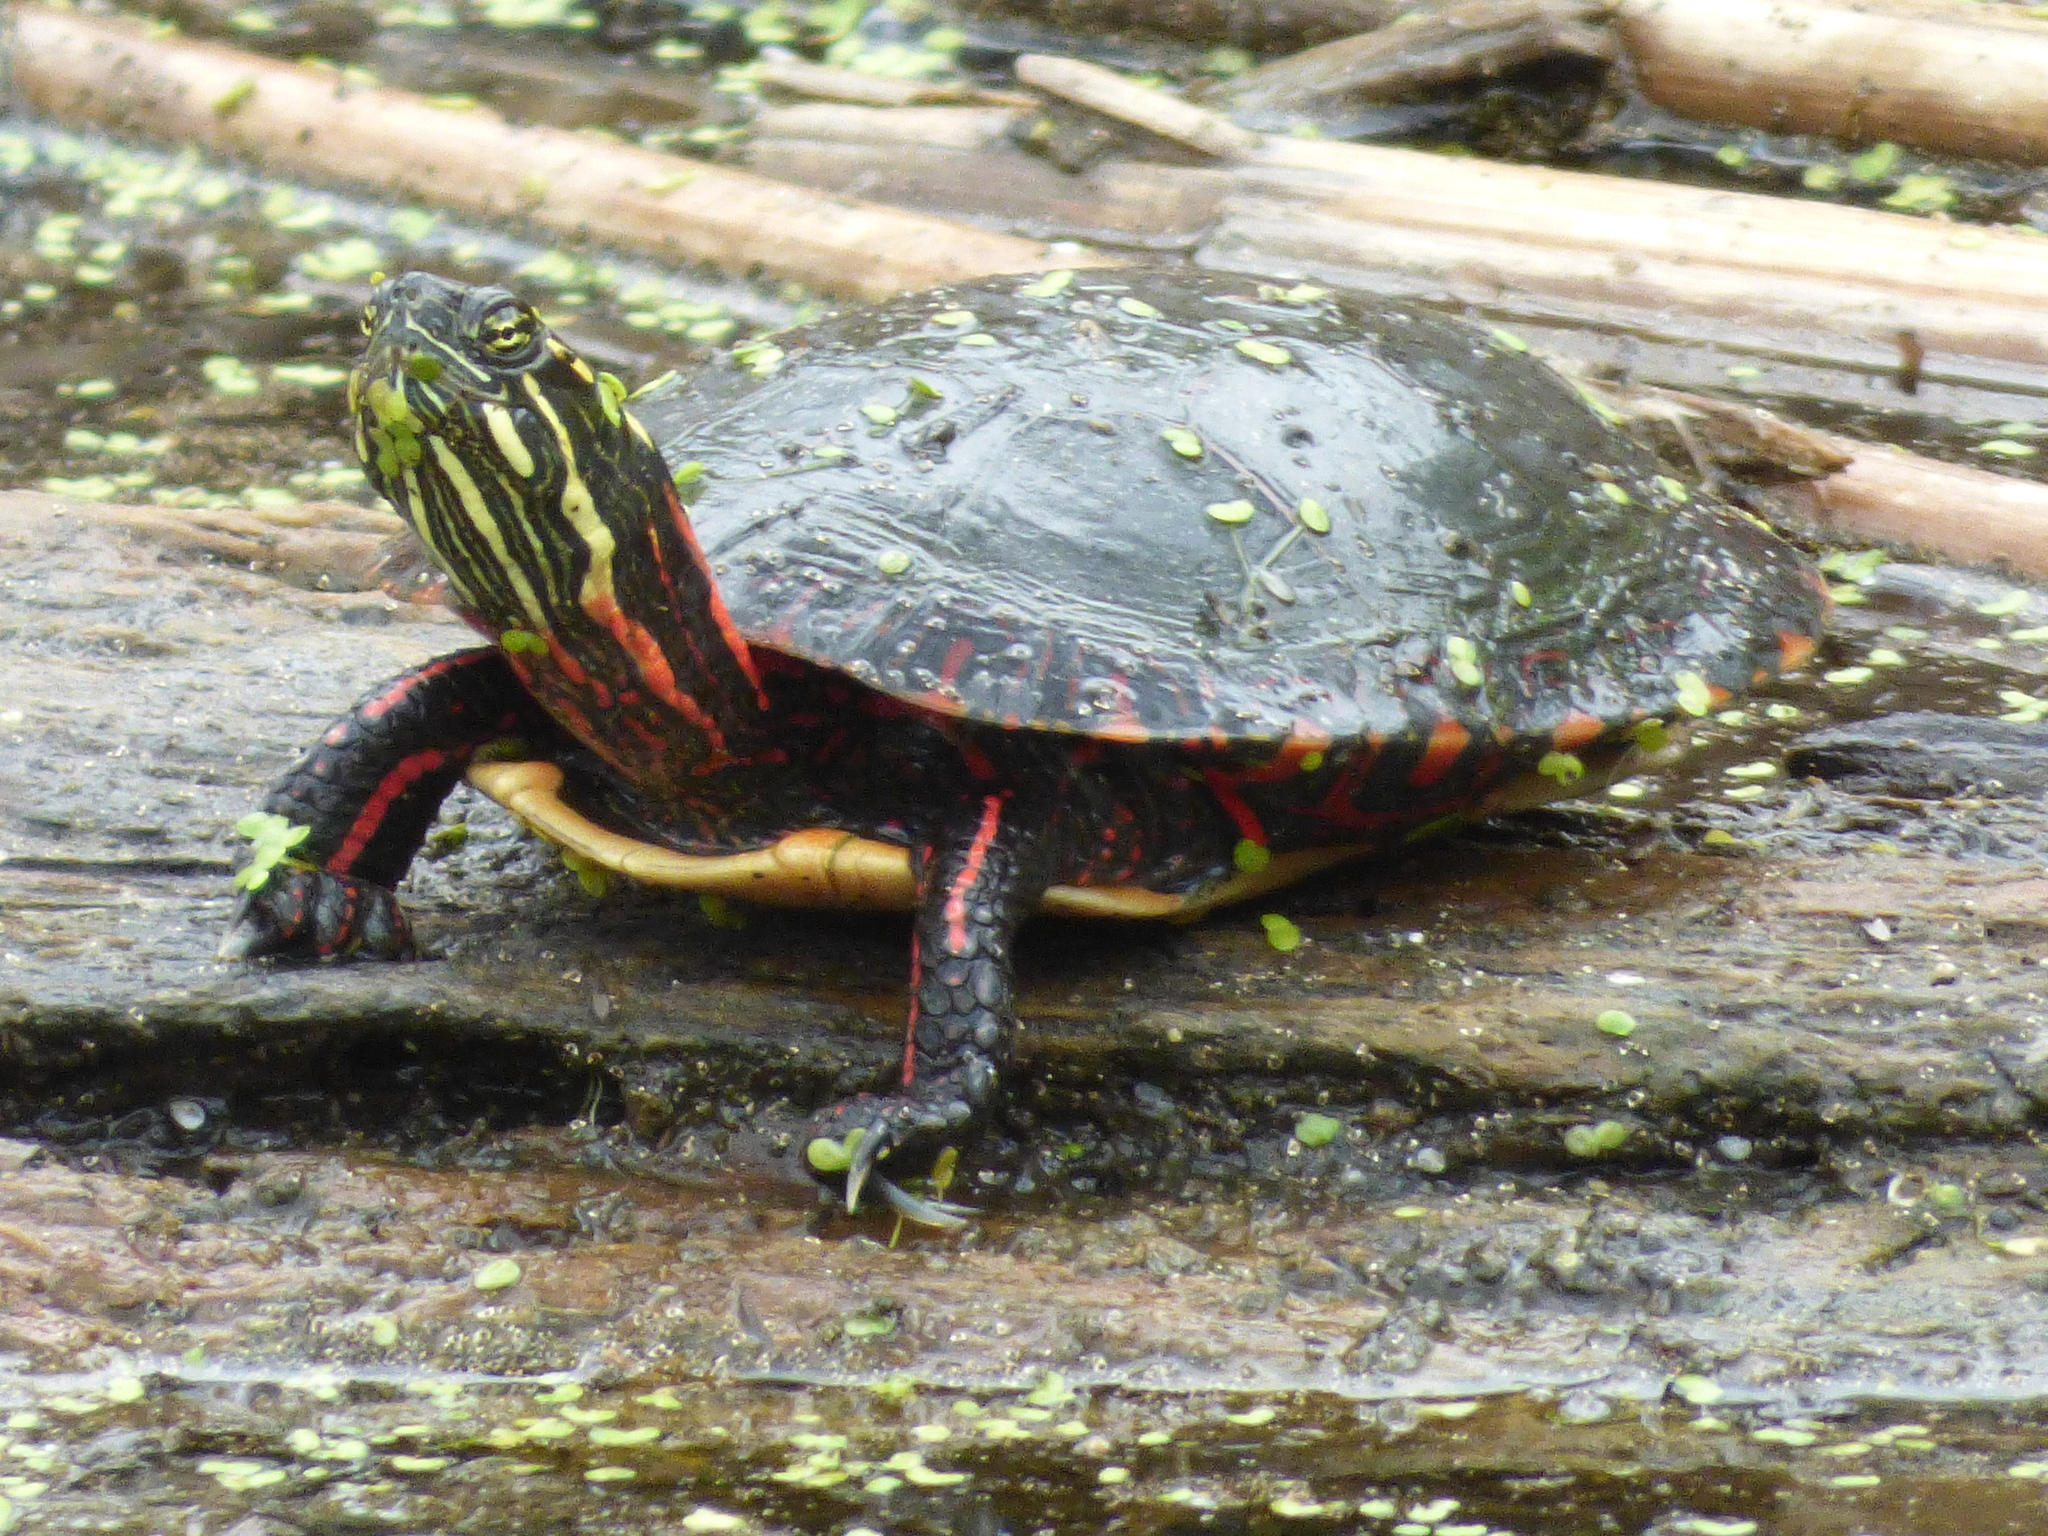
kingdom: Animalia
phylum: Chordata
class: Testudines
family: Emydidae
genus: Chrysemys
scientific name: Chrysemys picta
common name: Painted turtle
